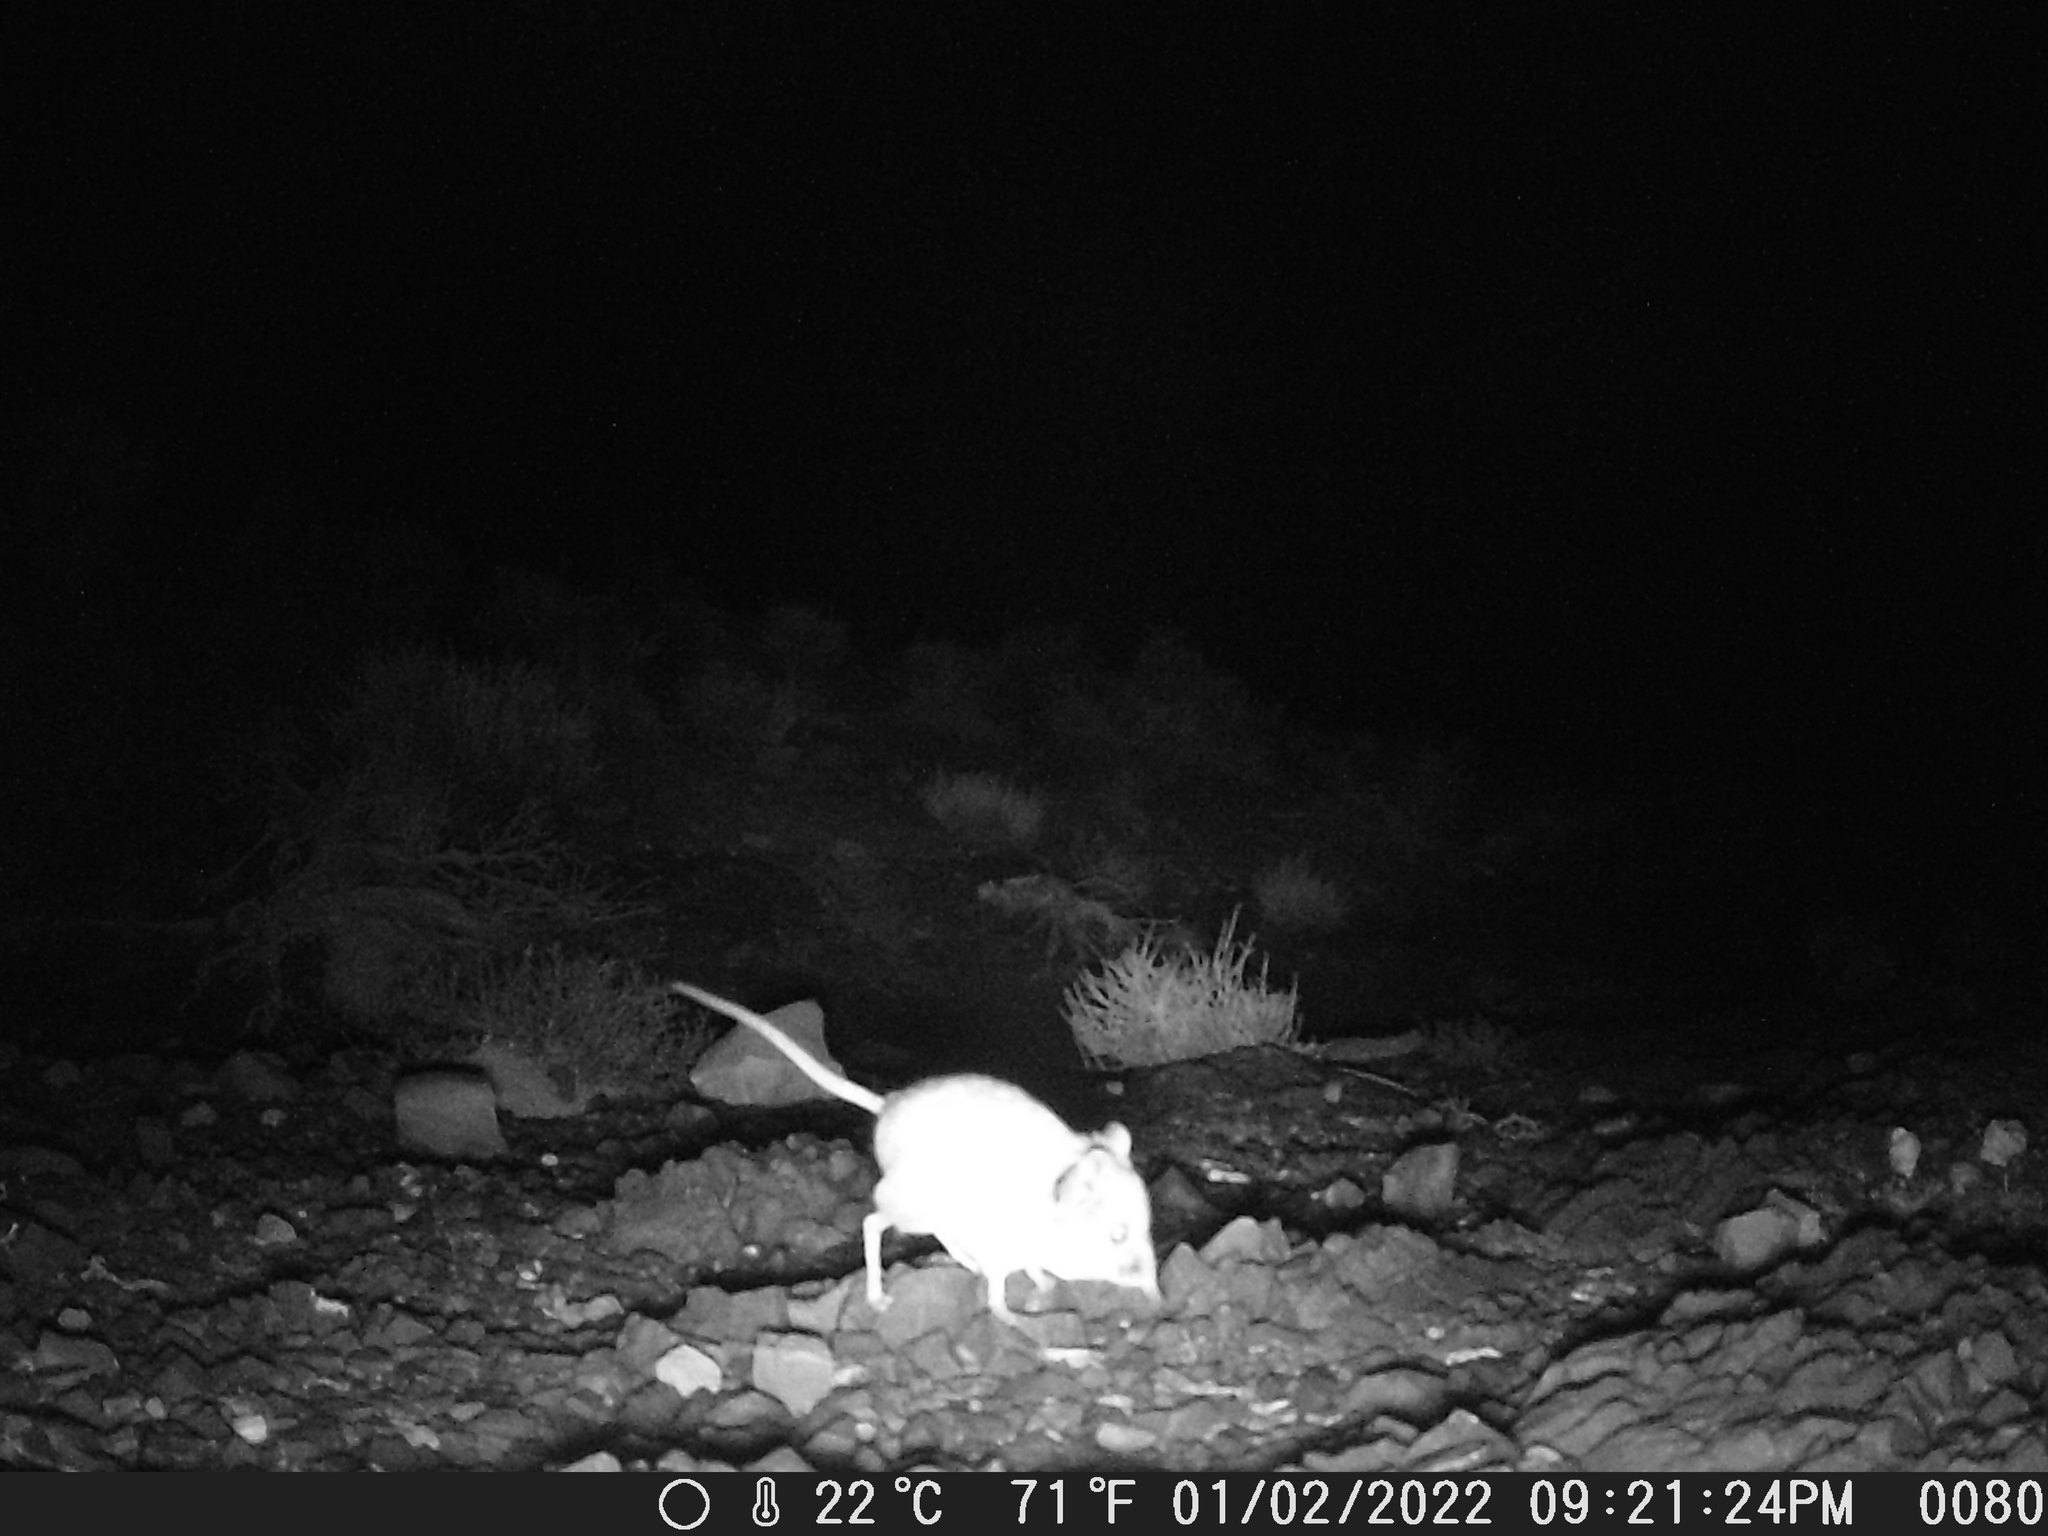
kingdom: Animalia
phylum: Chordata
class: Mammalia
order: Macroscelidea
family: Macroscelididae
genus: Macroscelides
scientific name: Macroscelides proboscideus
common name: Short-eared elephant shrew
